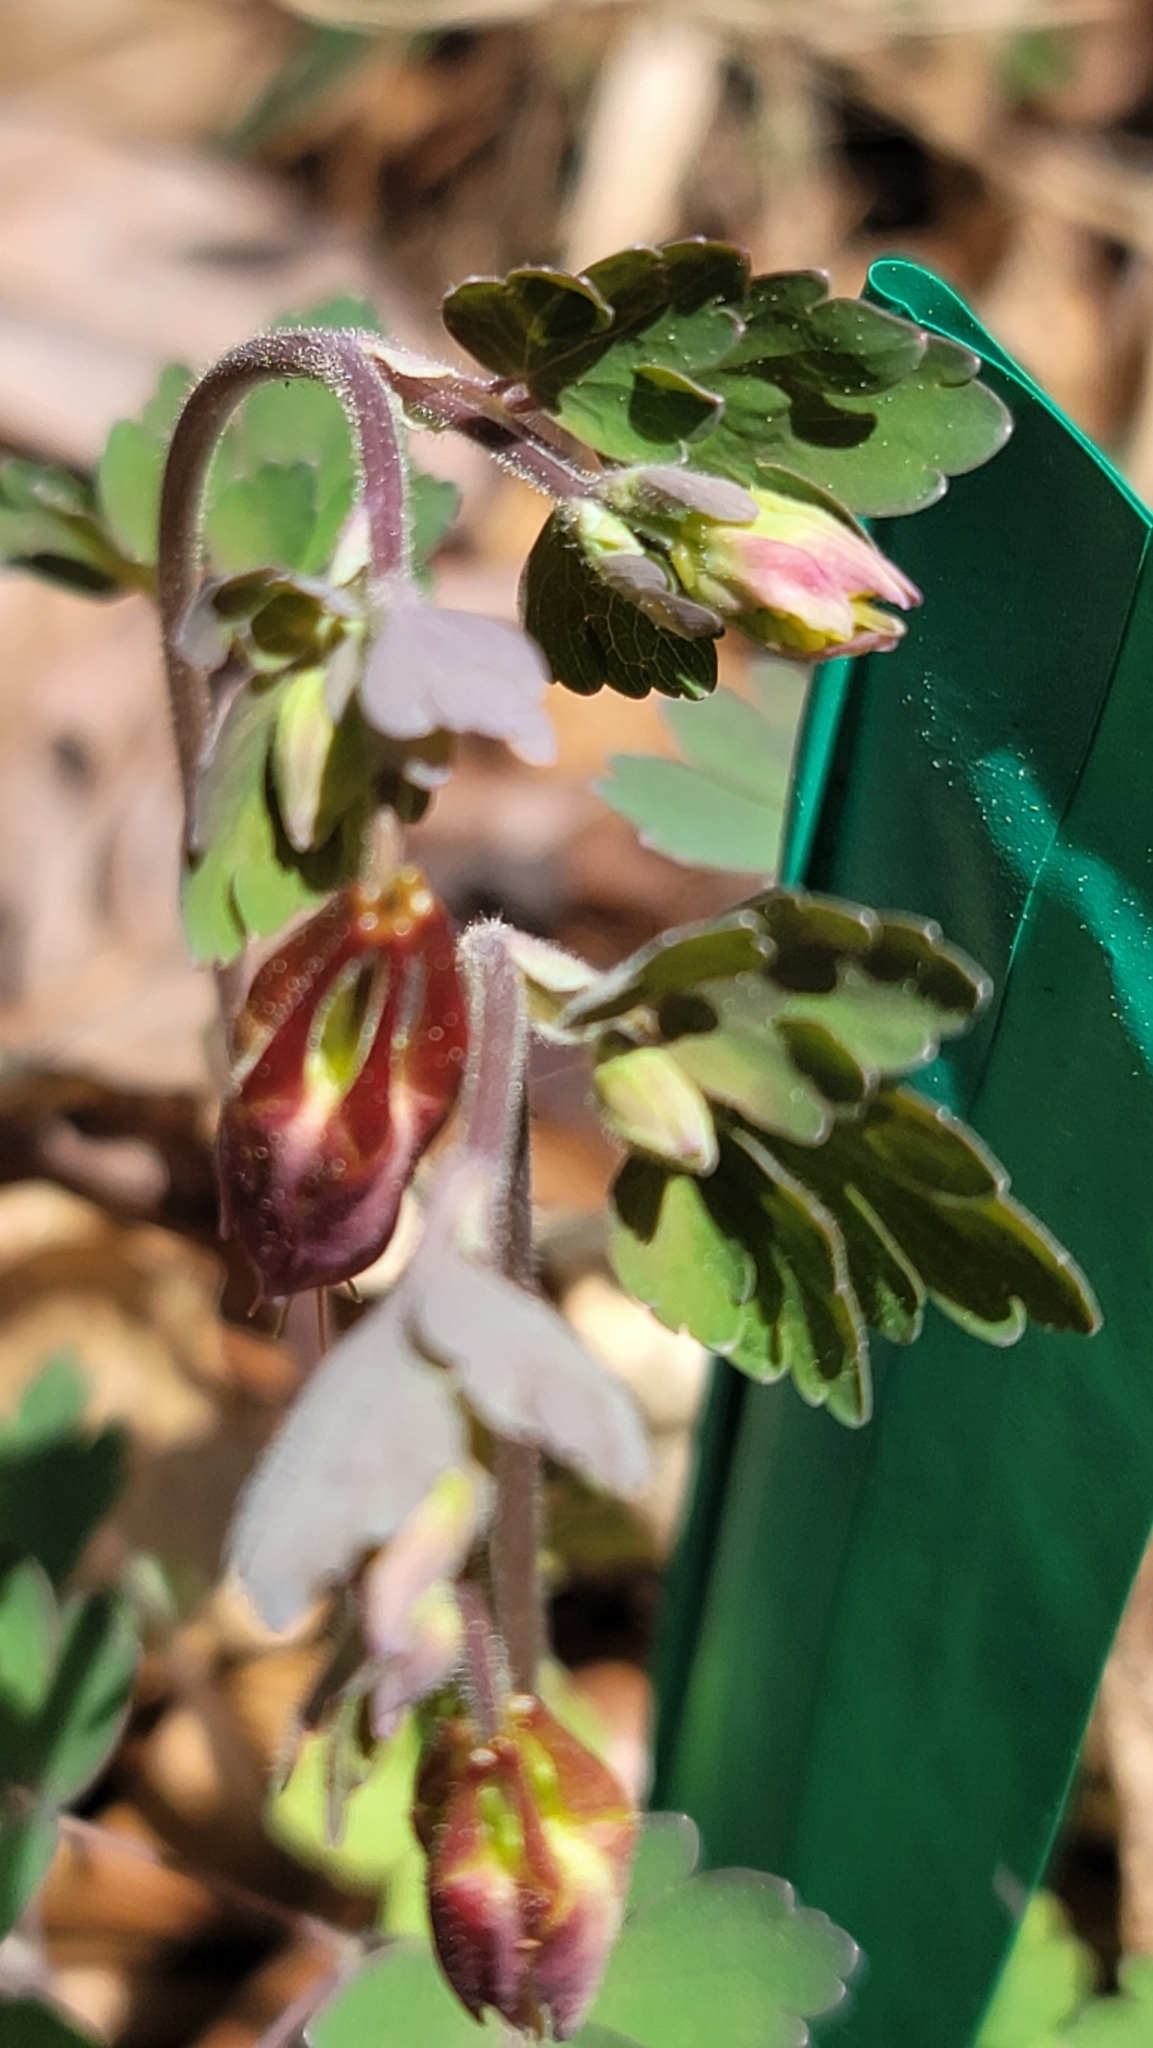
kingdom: Plantae
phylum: Tracheophyta
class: Magnoliopsida
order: Ranunculales
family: Ranunculaceae
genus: Aquilegia
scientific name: Aquilegia canadensis
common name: American columbine
